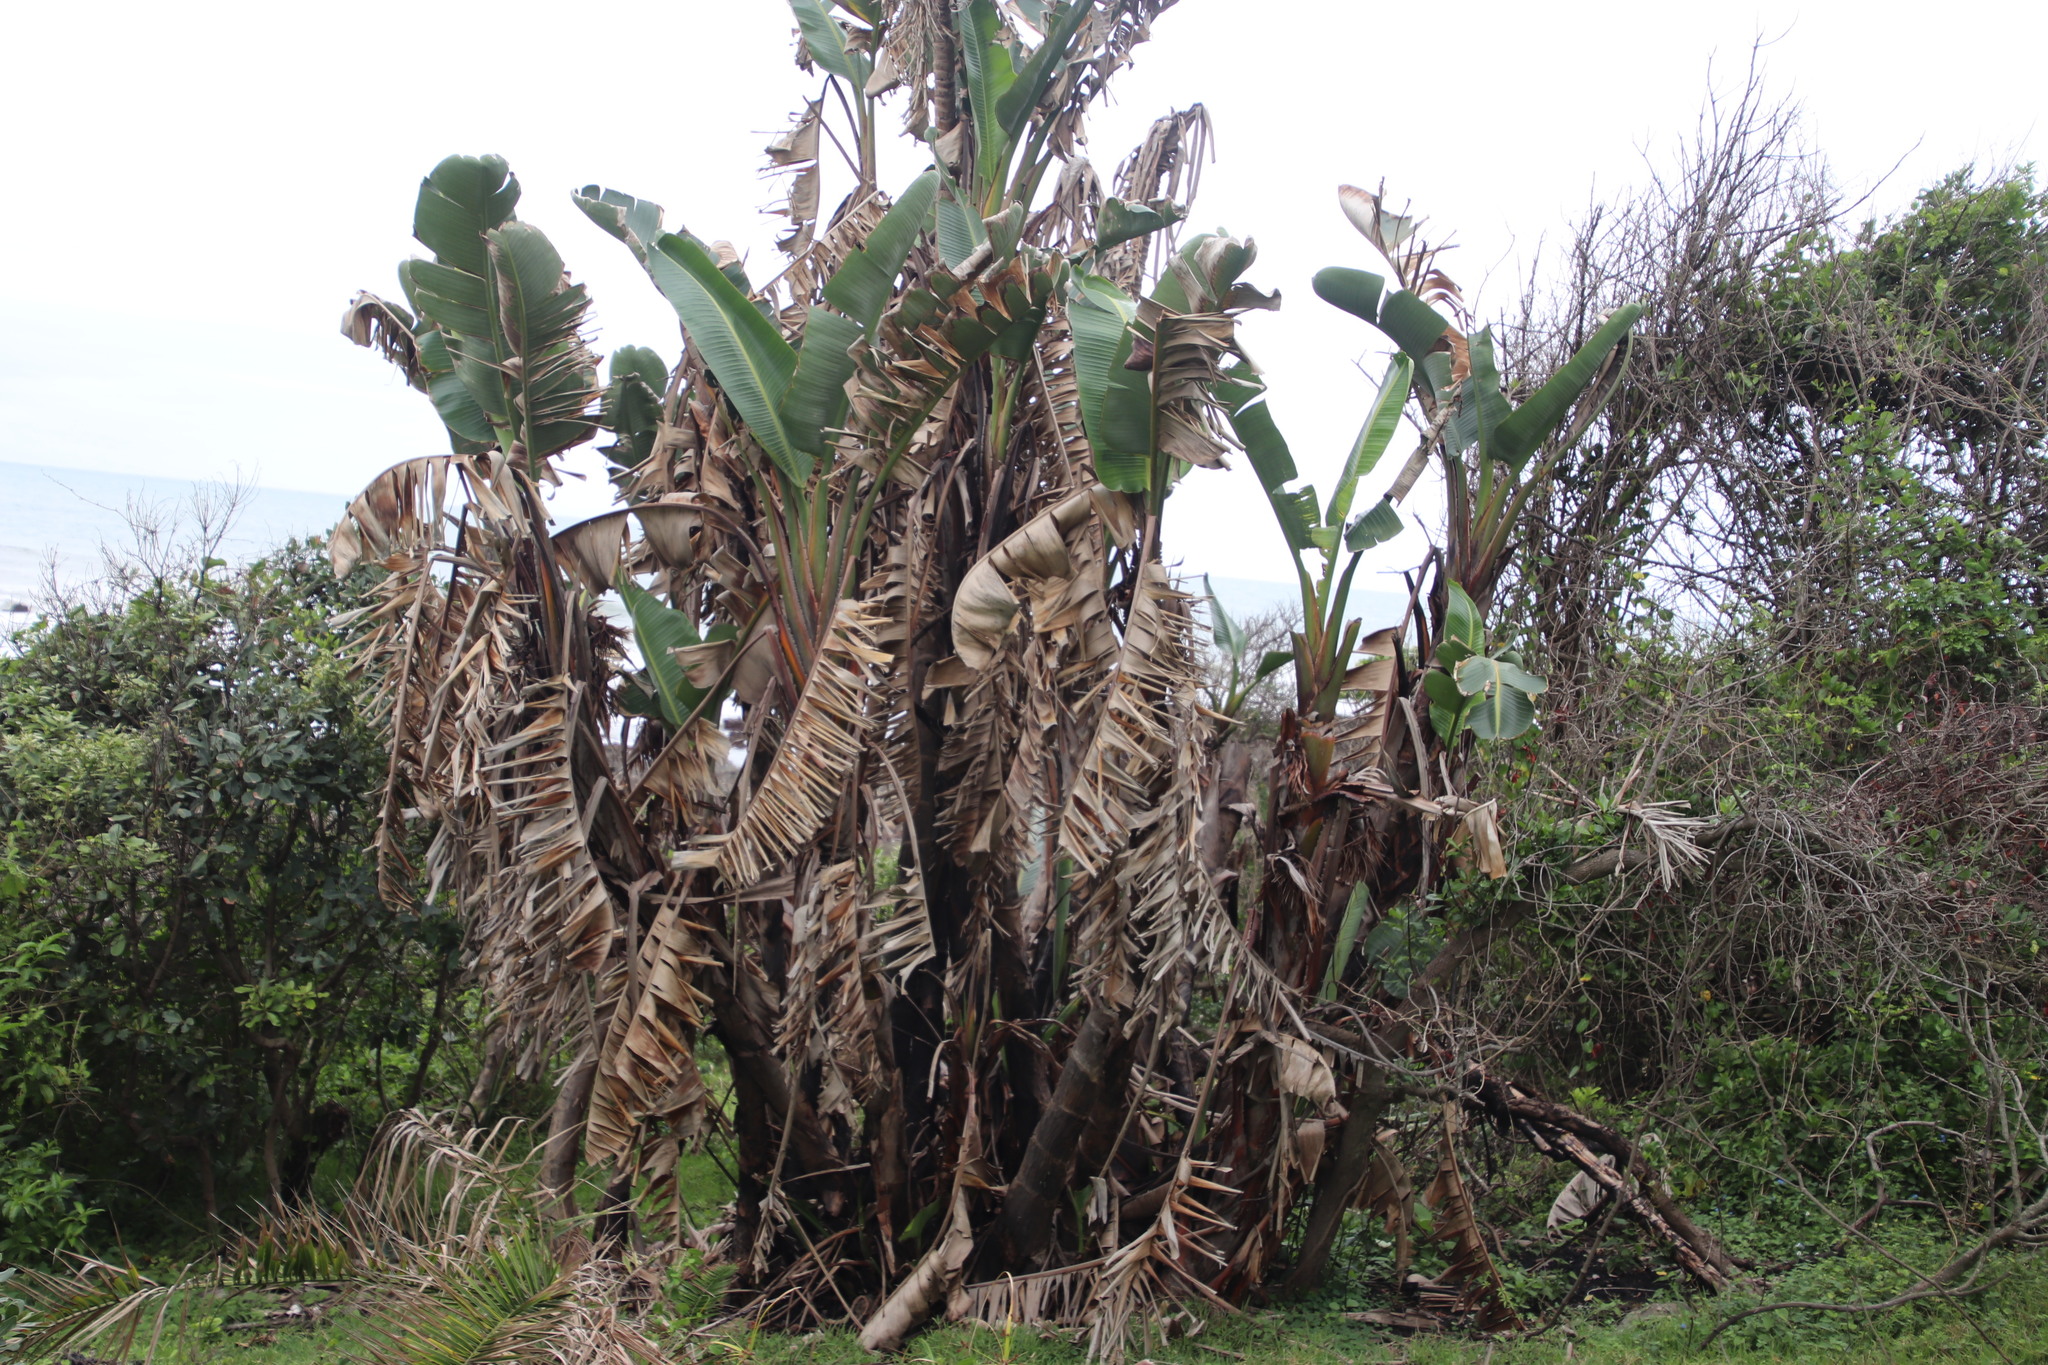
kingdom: Plantae
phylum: Tracheophyta
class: Liliopsida
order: Zingiberales
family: Strelitziaceae
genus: Strelitzia
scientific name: Strelitzia nicolai
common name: Bird-of-paradise tree
